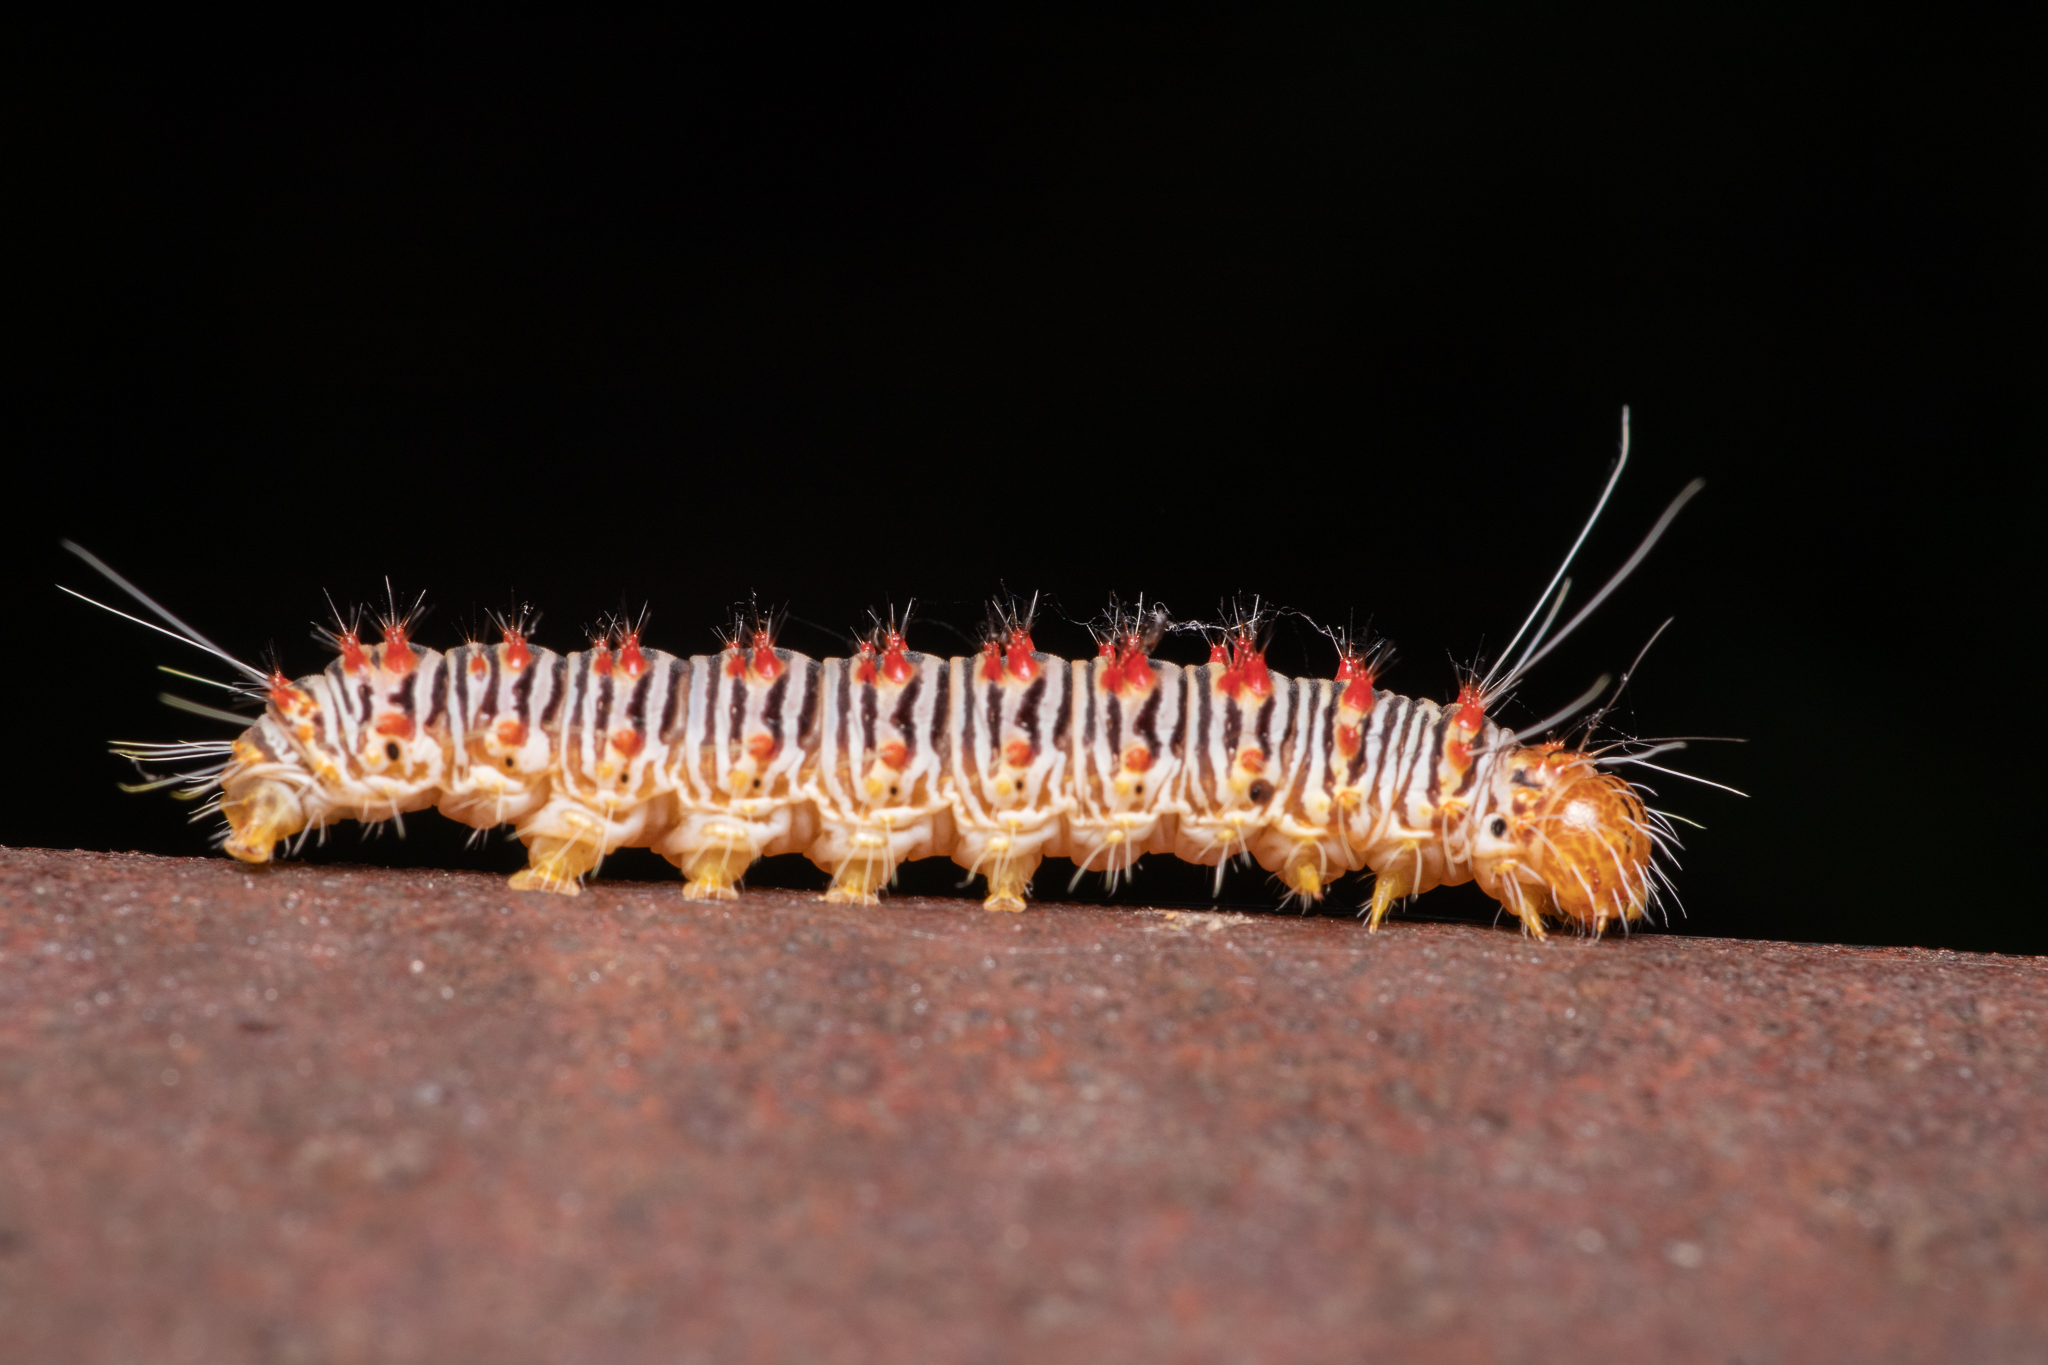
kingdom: Animalia
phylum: Arthropoda
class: Insecta
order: Lepidoptera
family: Noctuidae
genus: Acronicta
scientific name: Acronicta retardata
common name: Maple dagger
